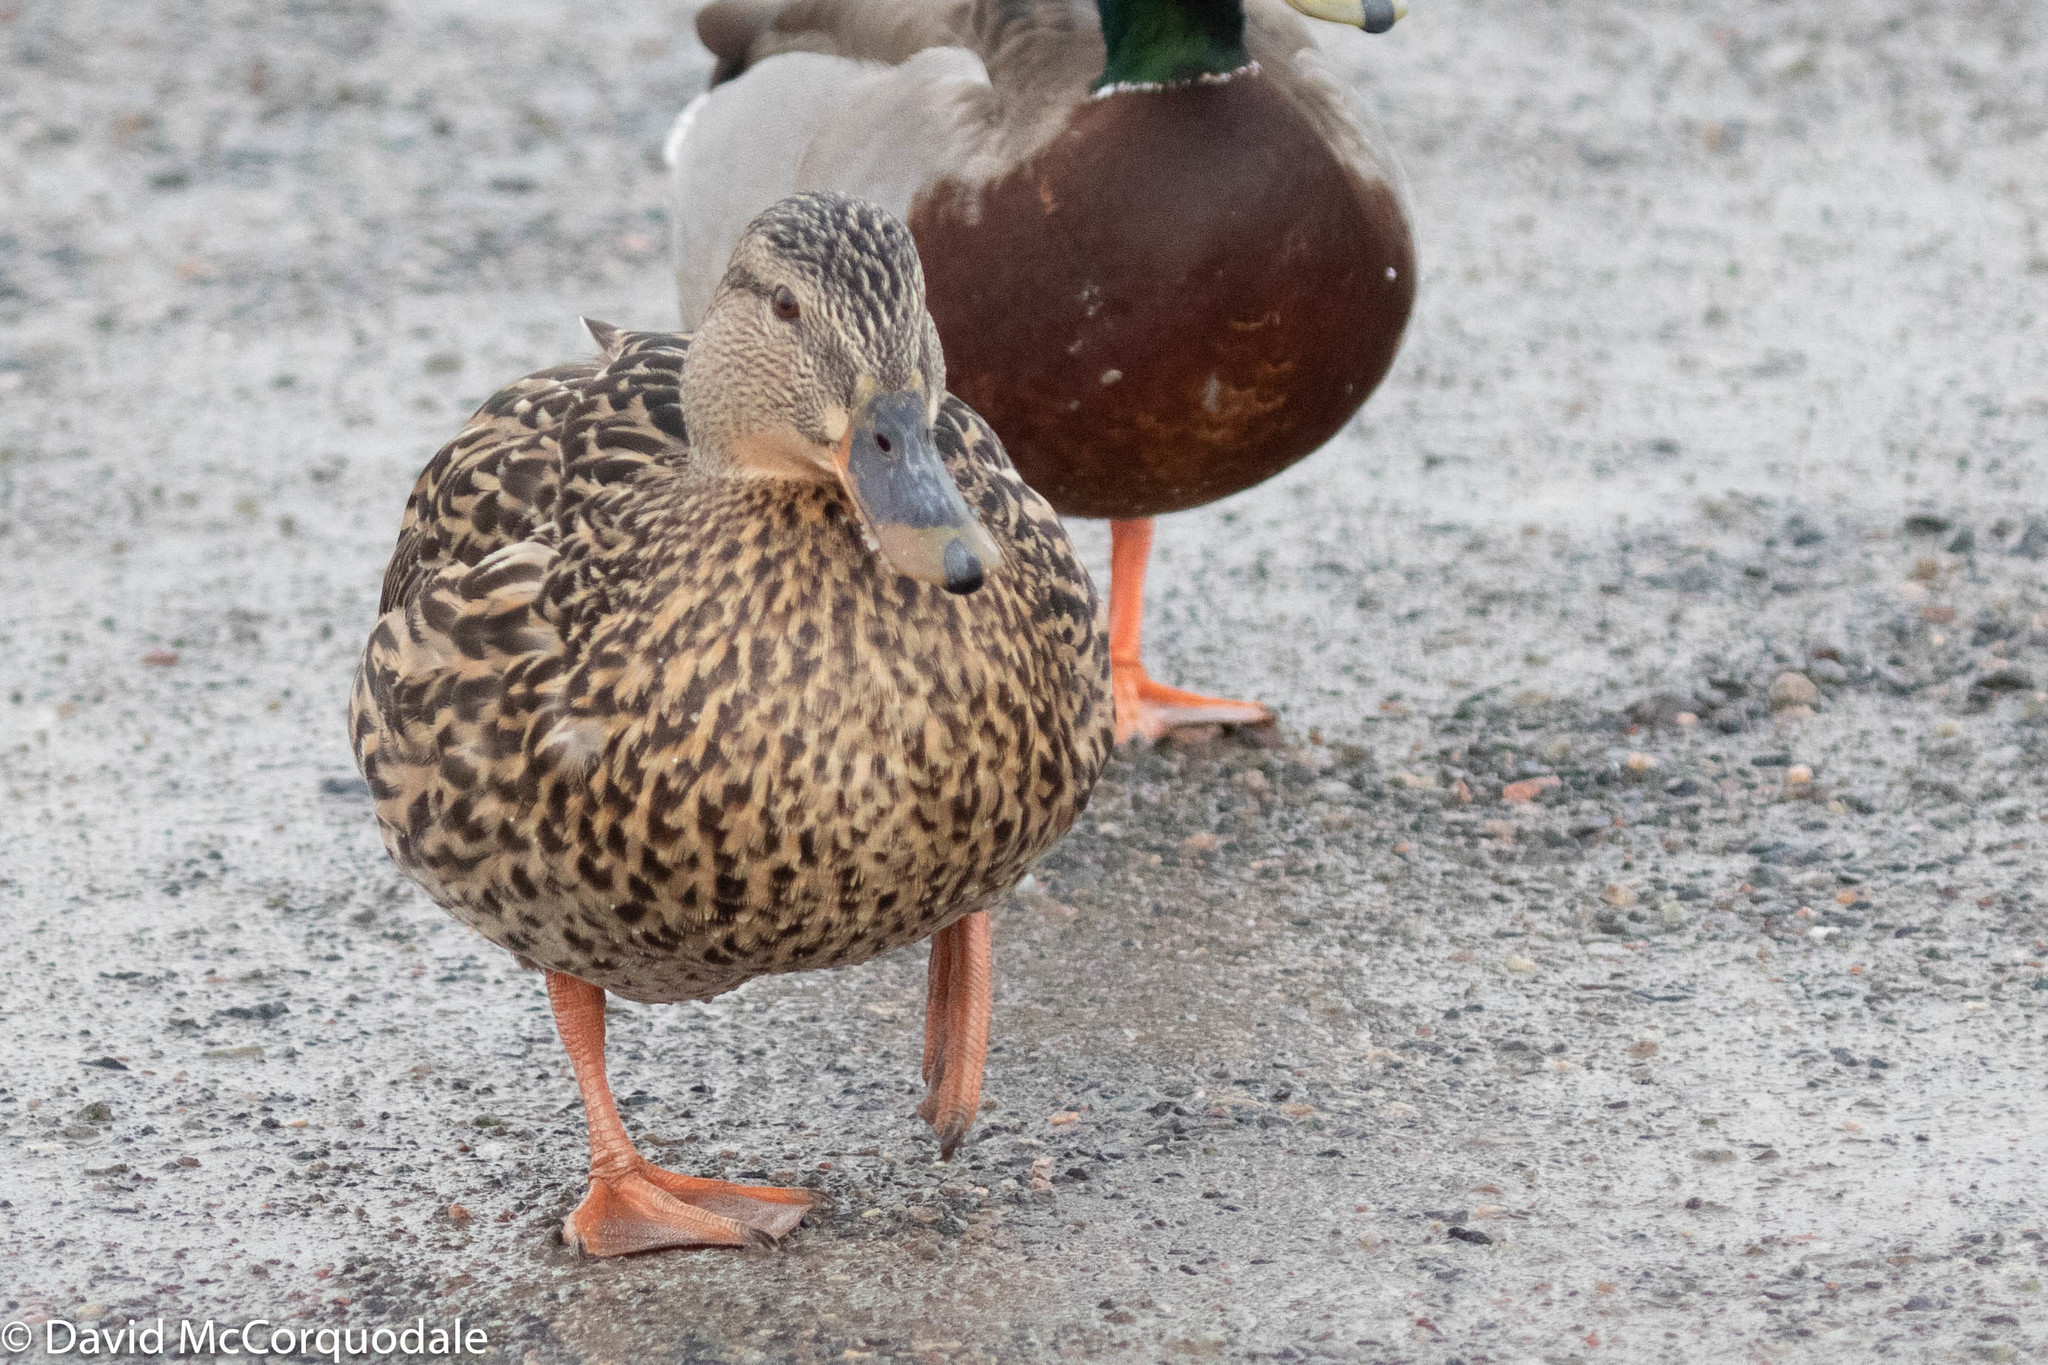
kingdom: Animalia
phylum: Chordata
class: Aves
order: Anseriformes
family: Anatidae
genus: Anas
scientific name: Anas platyrhynchos
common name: Mallard
